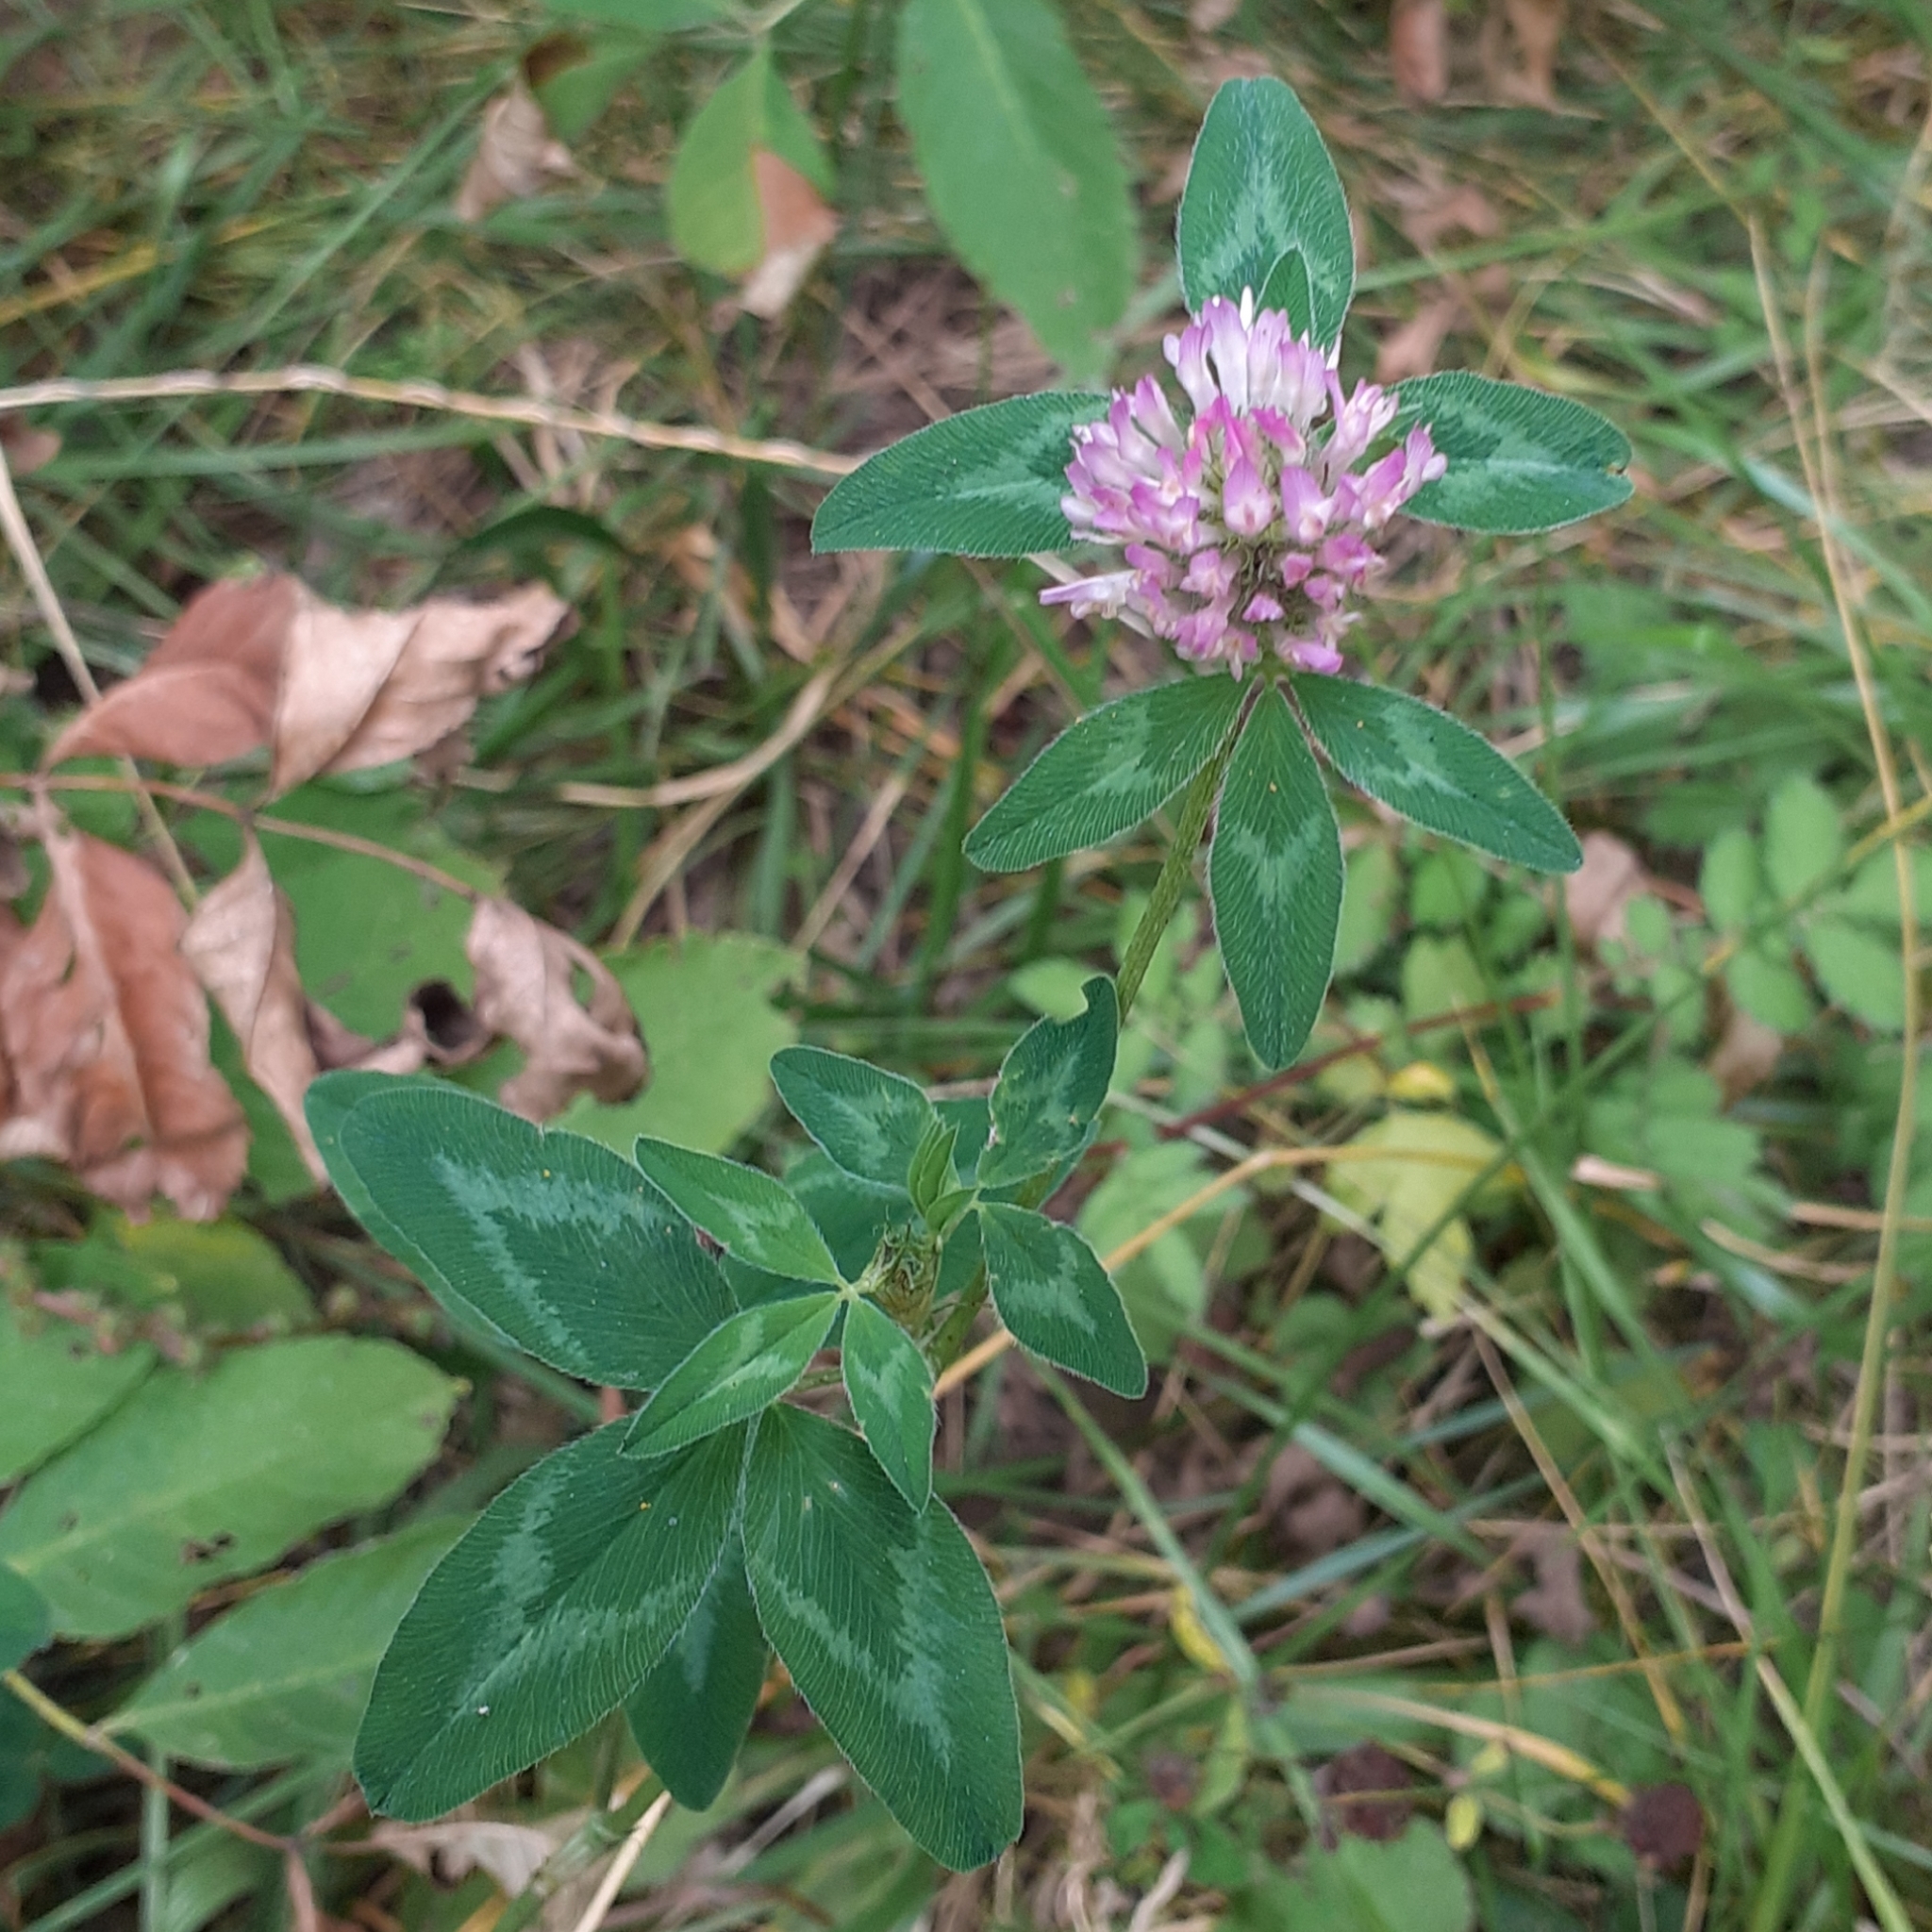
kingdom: Plantae
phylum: Tracheophyta
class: Magnoliopsida
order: Fabales
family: Fabaceae
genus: Trifolium
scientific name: Trifolium pratense
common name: Red clover
